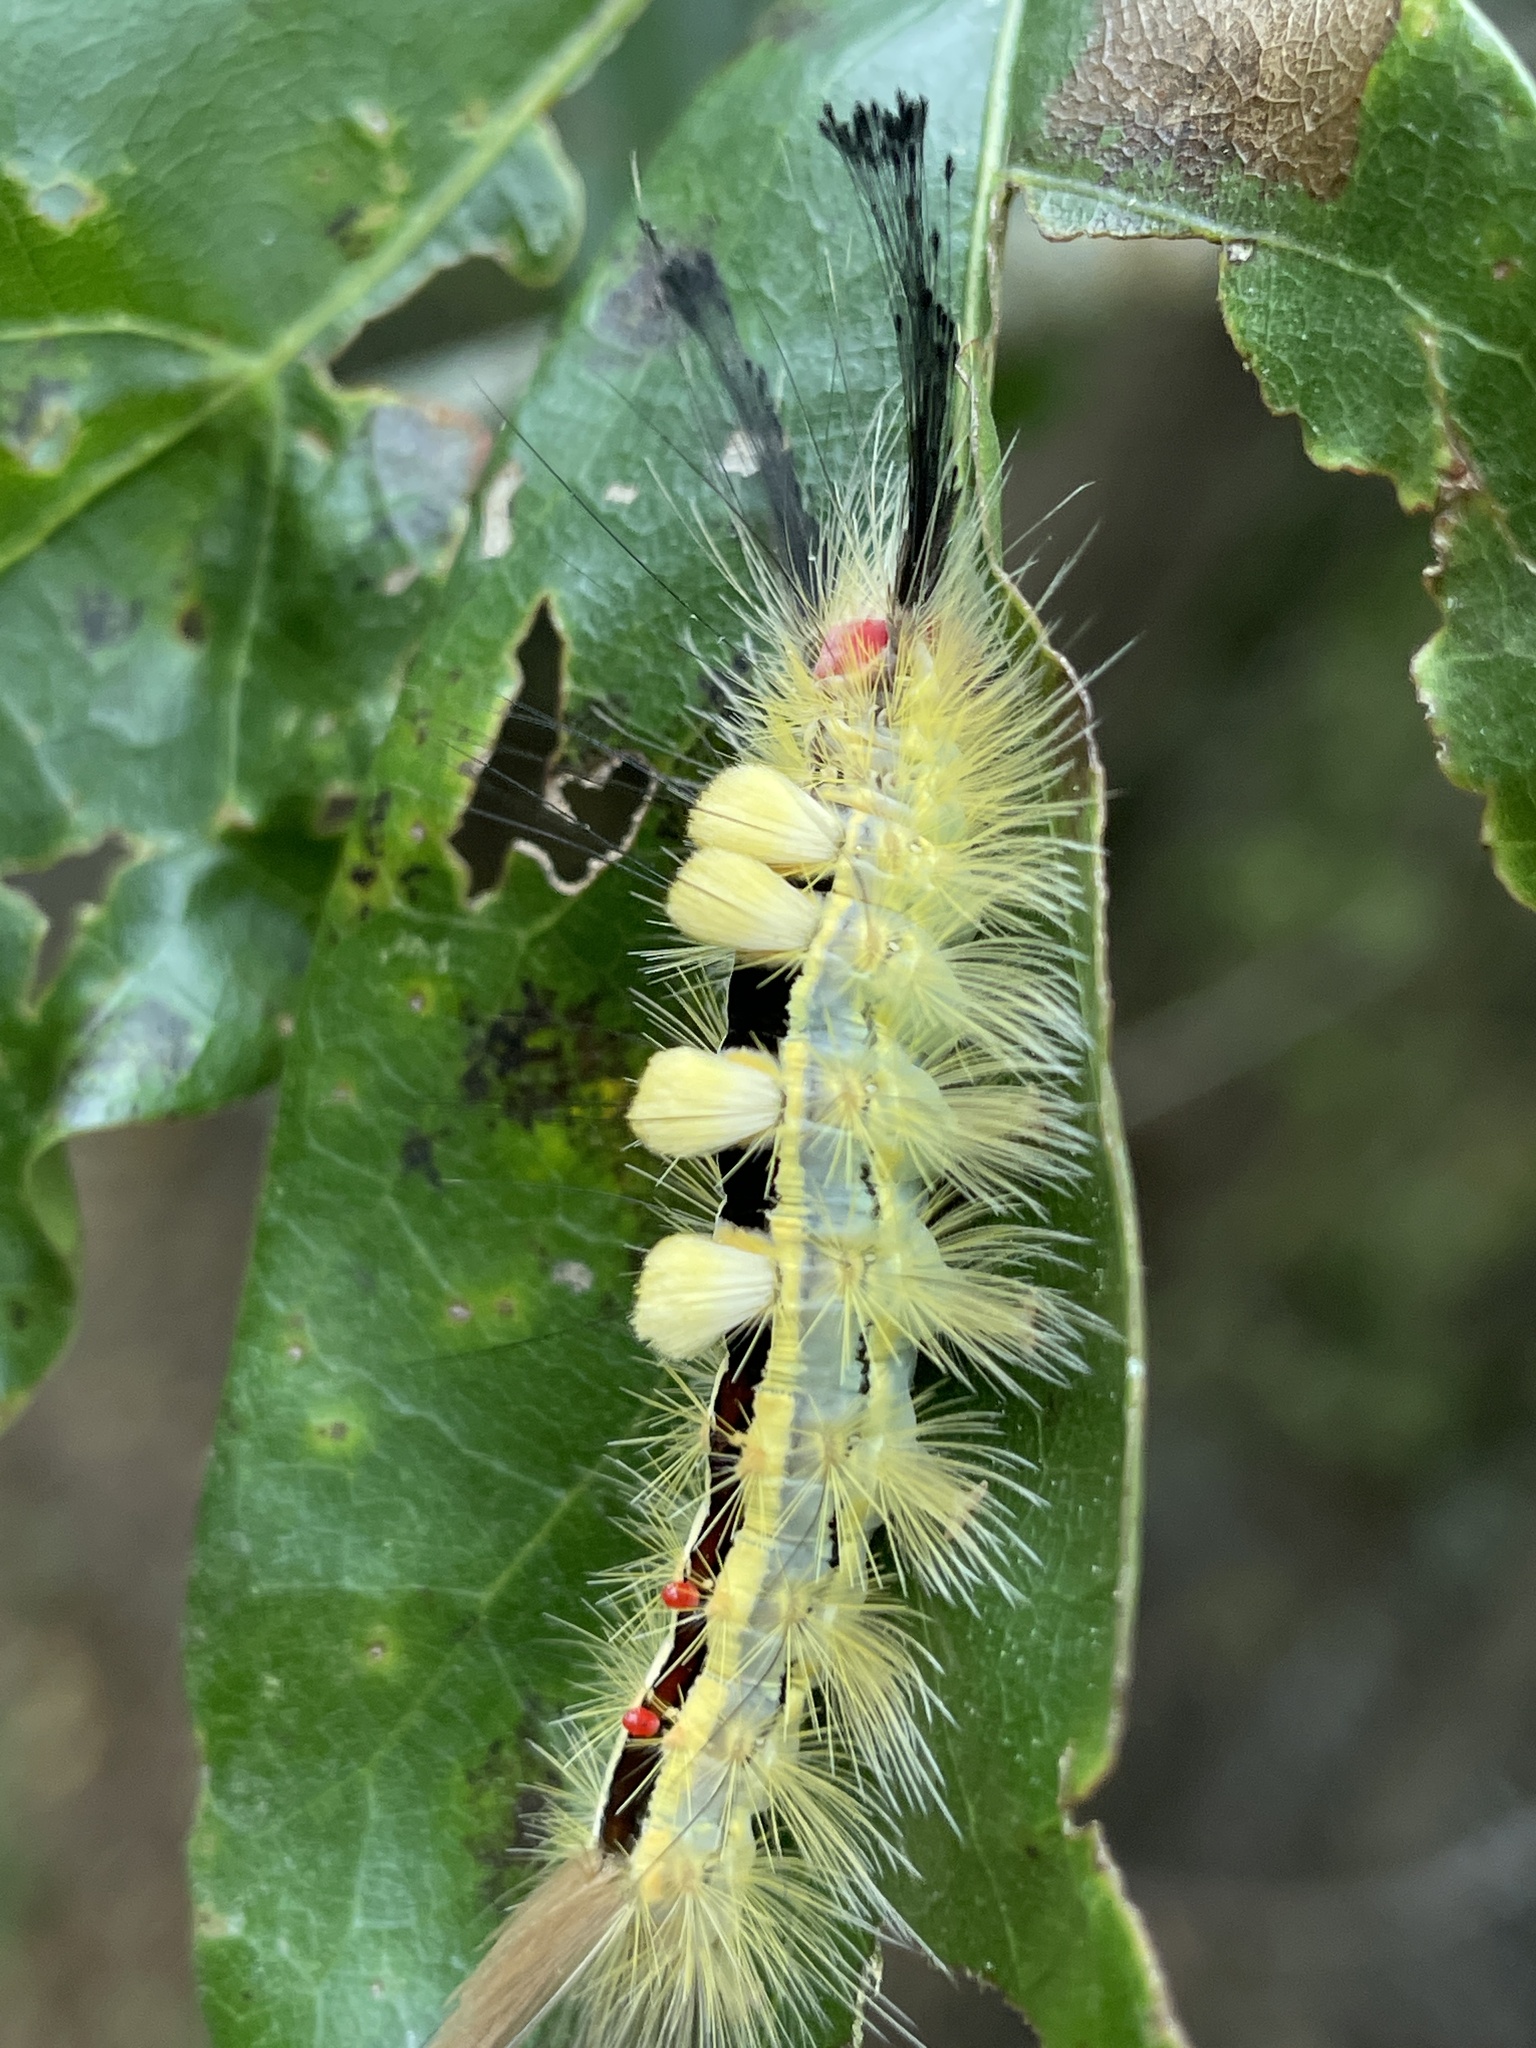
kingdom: Animalia
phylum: Arthropoda
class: Insecta
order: Lepidoptera
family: Erebidae
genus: Orgyia
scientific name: Orgyia leucostigma
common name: White-marked tussock moth
